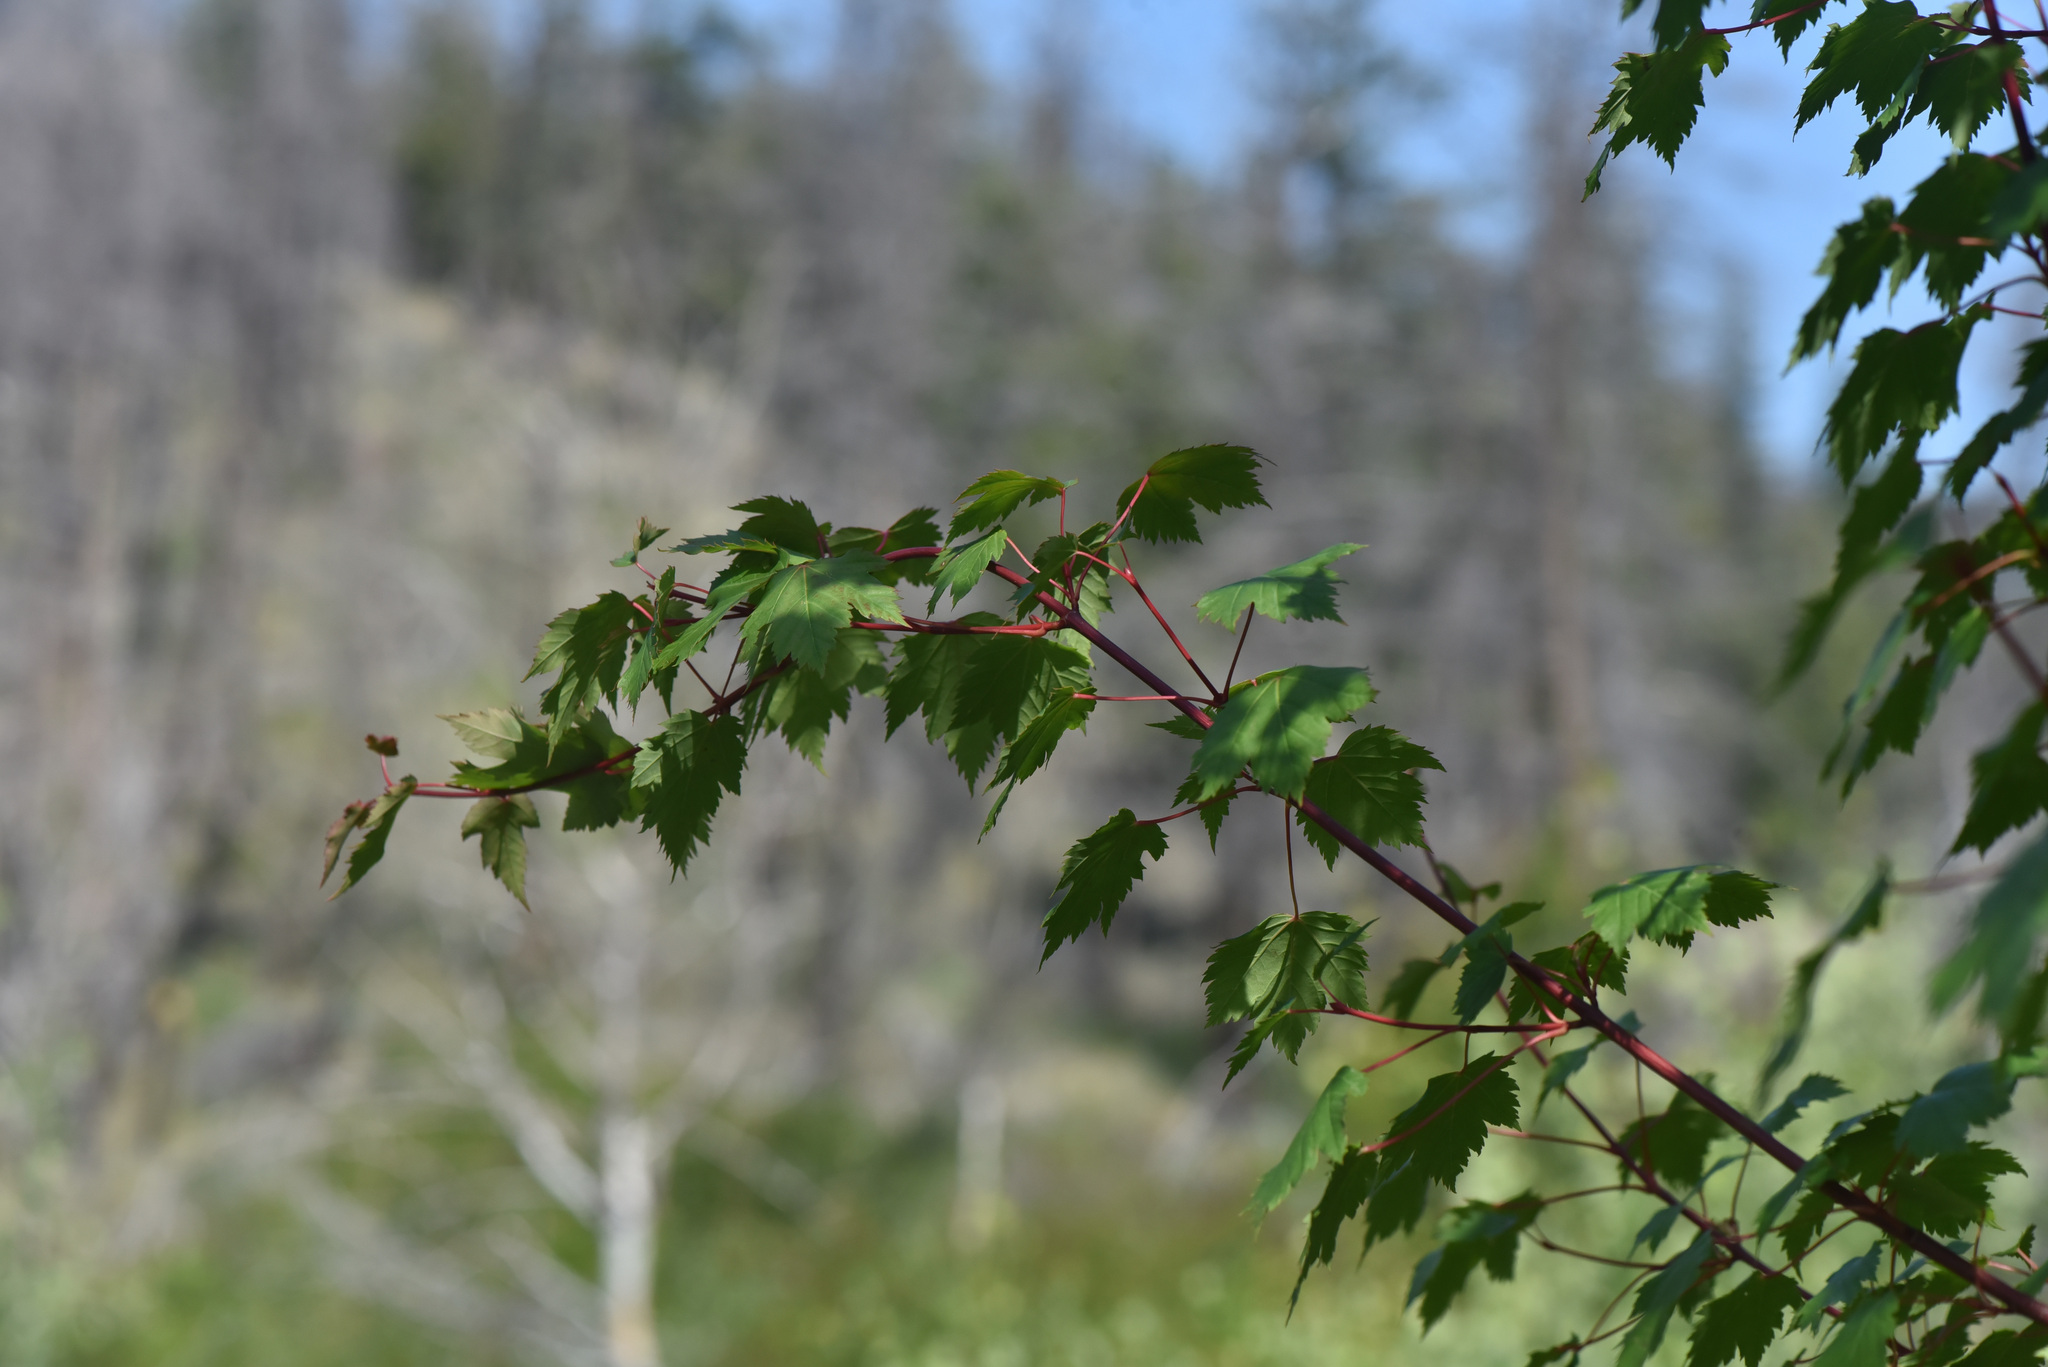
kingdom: Plantae
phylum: Tracheophyta
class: Magnoliopsida
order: Sapindales
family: Sapindaceae
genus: Acer
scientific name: Acer glabrum
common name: Rocky mountain maple
